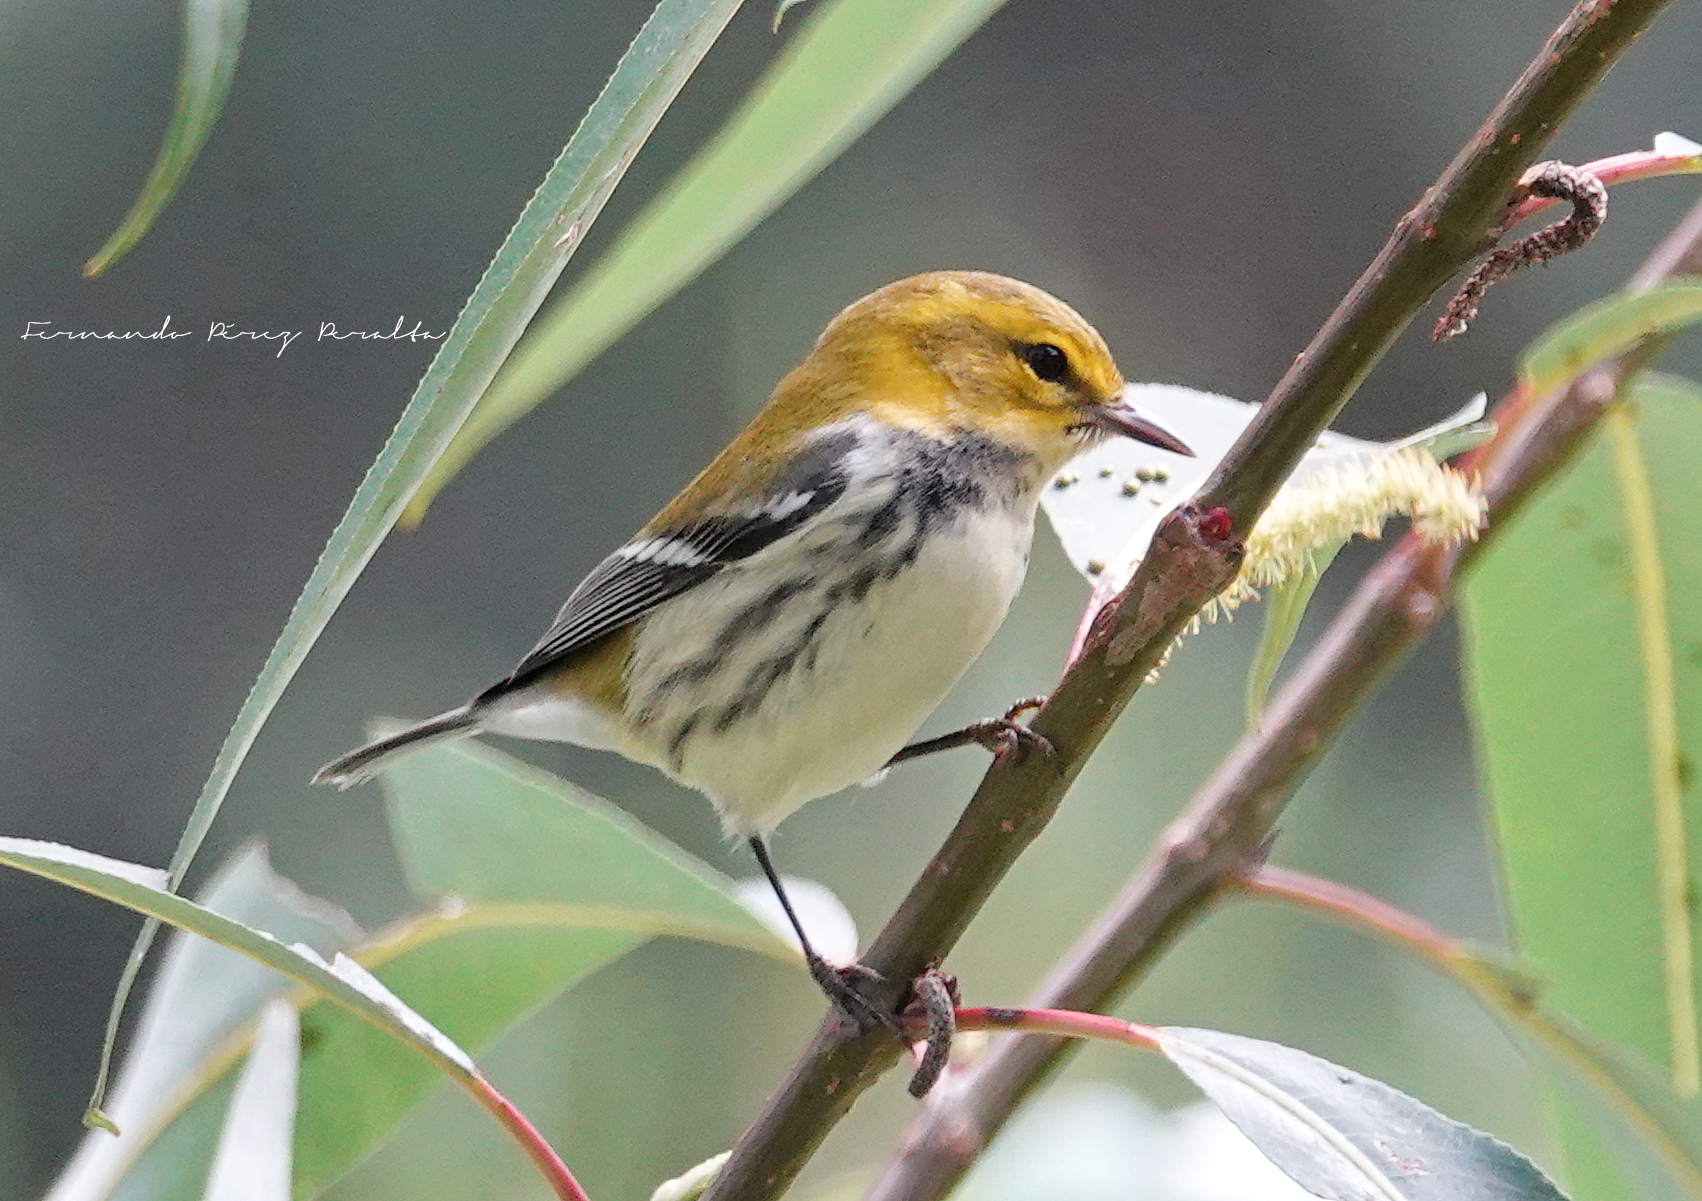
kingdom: Animalia
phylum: Chordata
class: Aves
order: Passeriformes
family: Parulidae
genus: Setophaga
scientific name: Setophaga virens
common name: Black-throated green warbler
